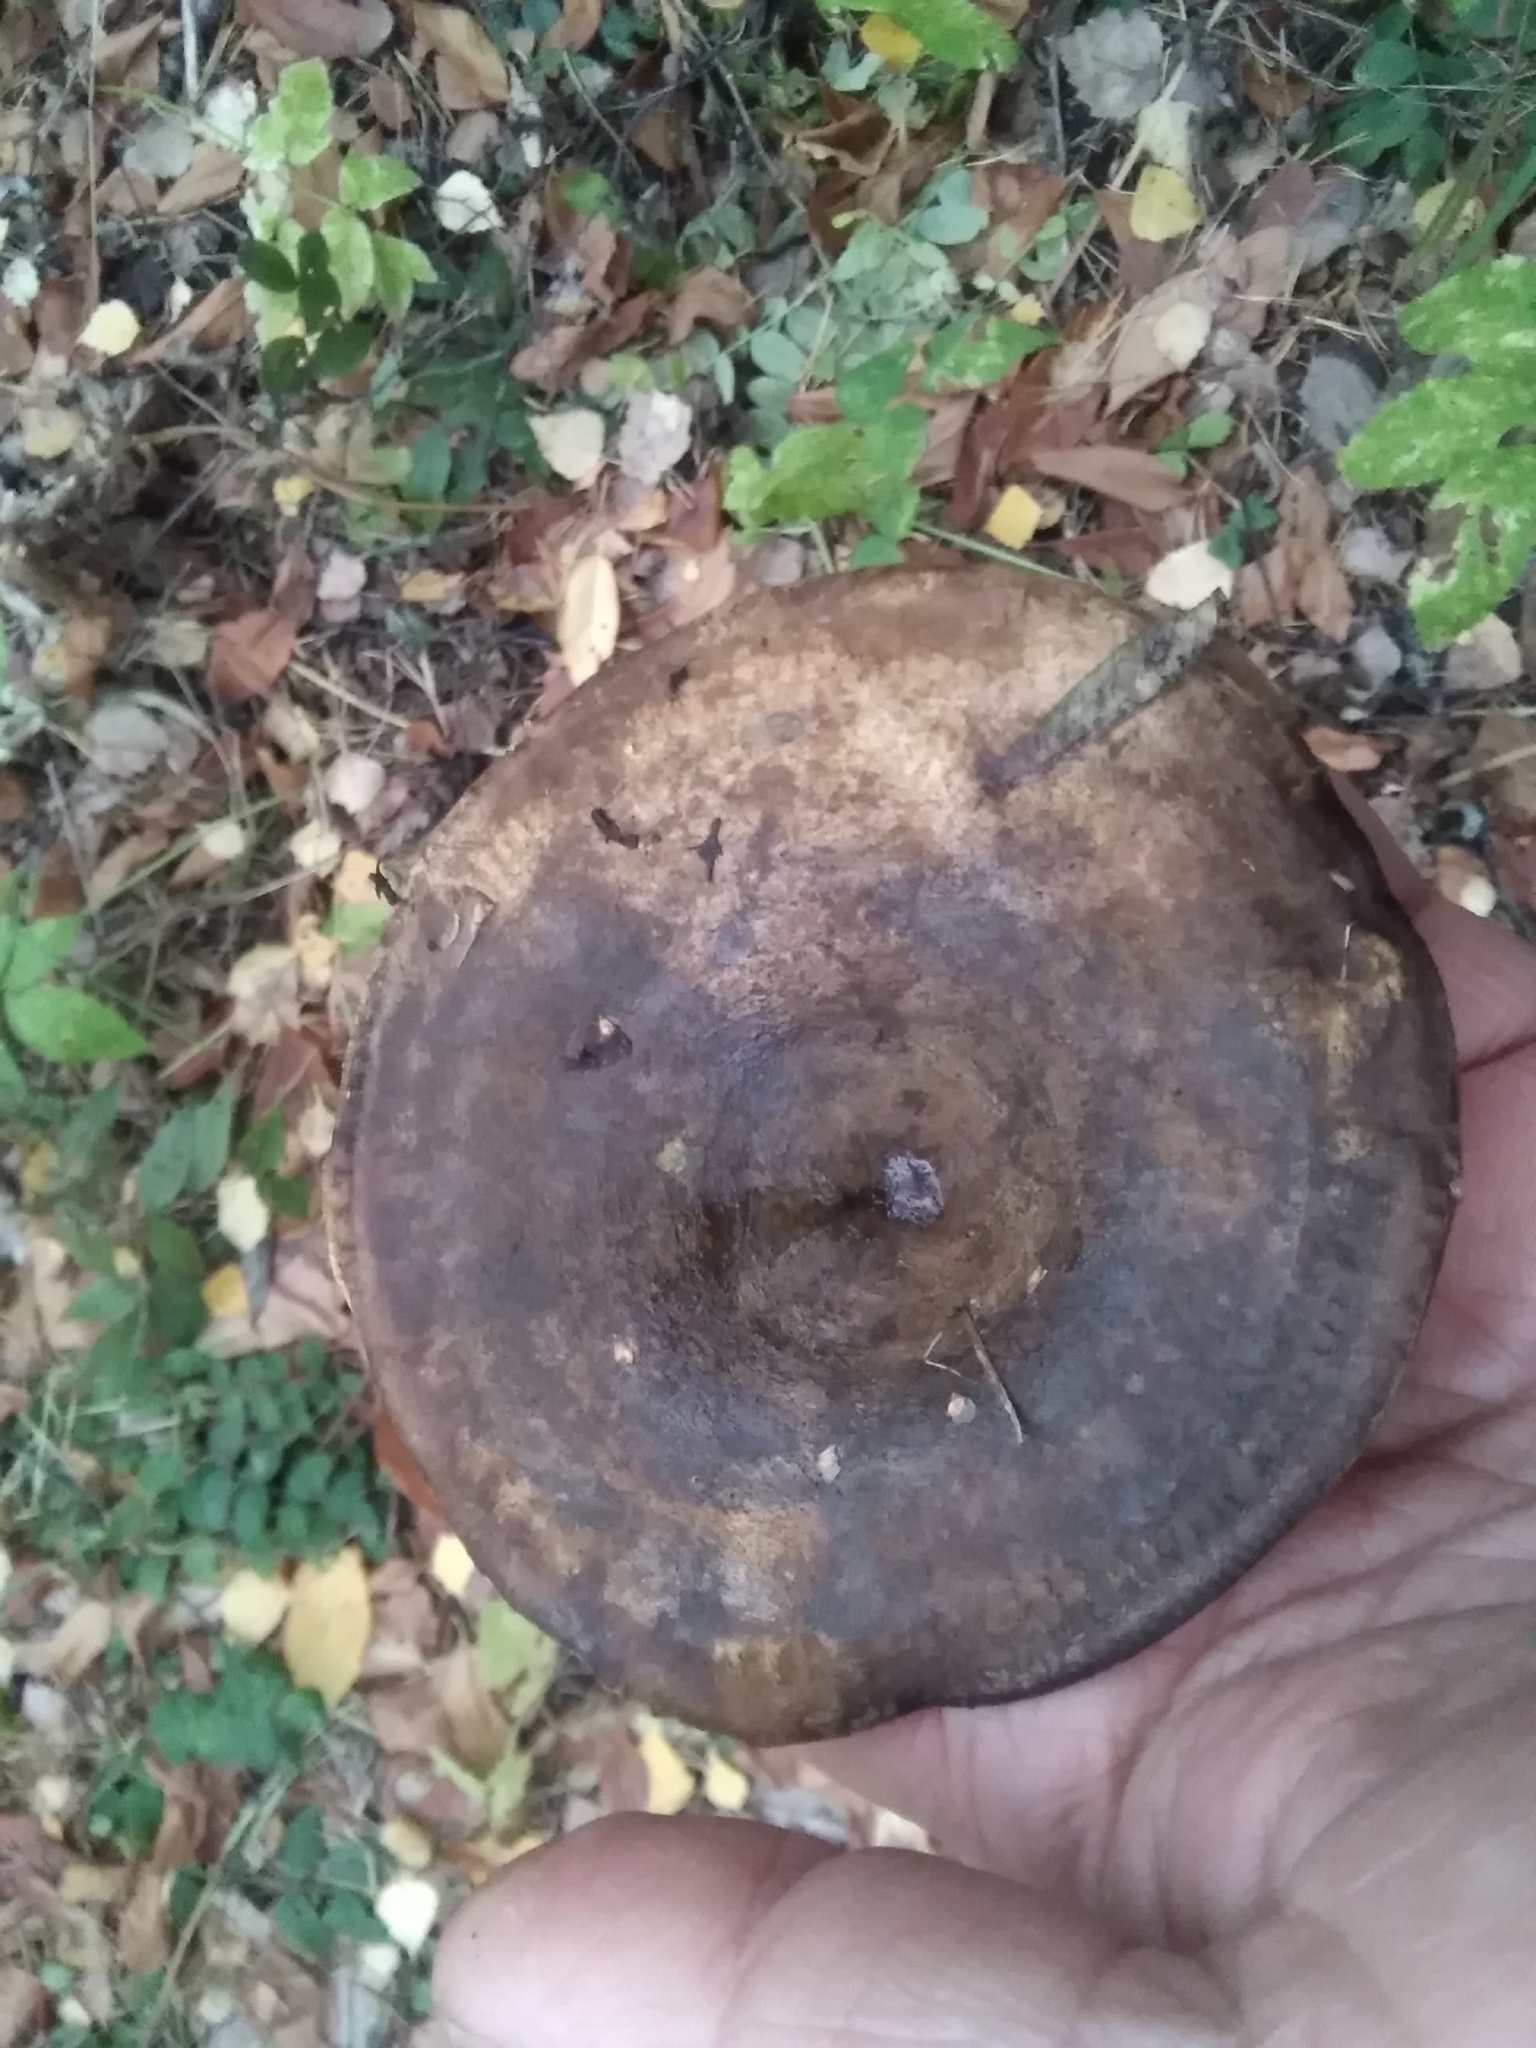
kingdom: Fungi
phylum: Basidiomycota
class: Agaricomycetes
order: Russulales
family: Russulaceae
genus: Lactarius
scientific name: Lactarius turpis
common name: Ugly milk-cap
